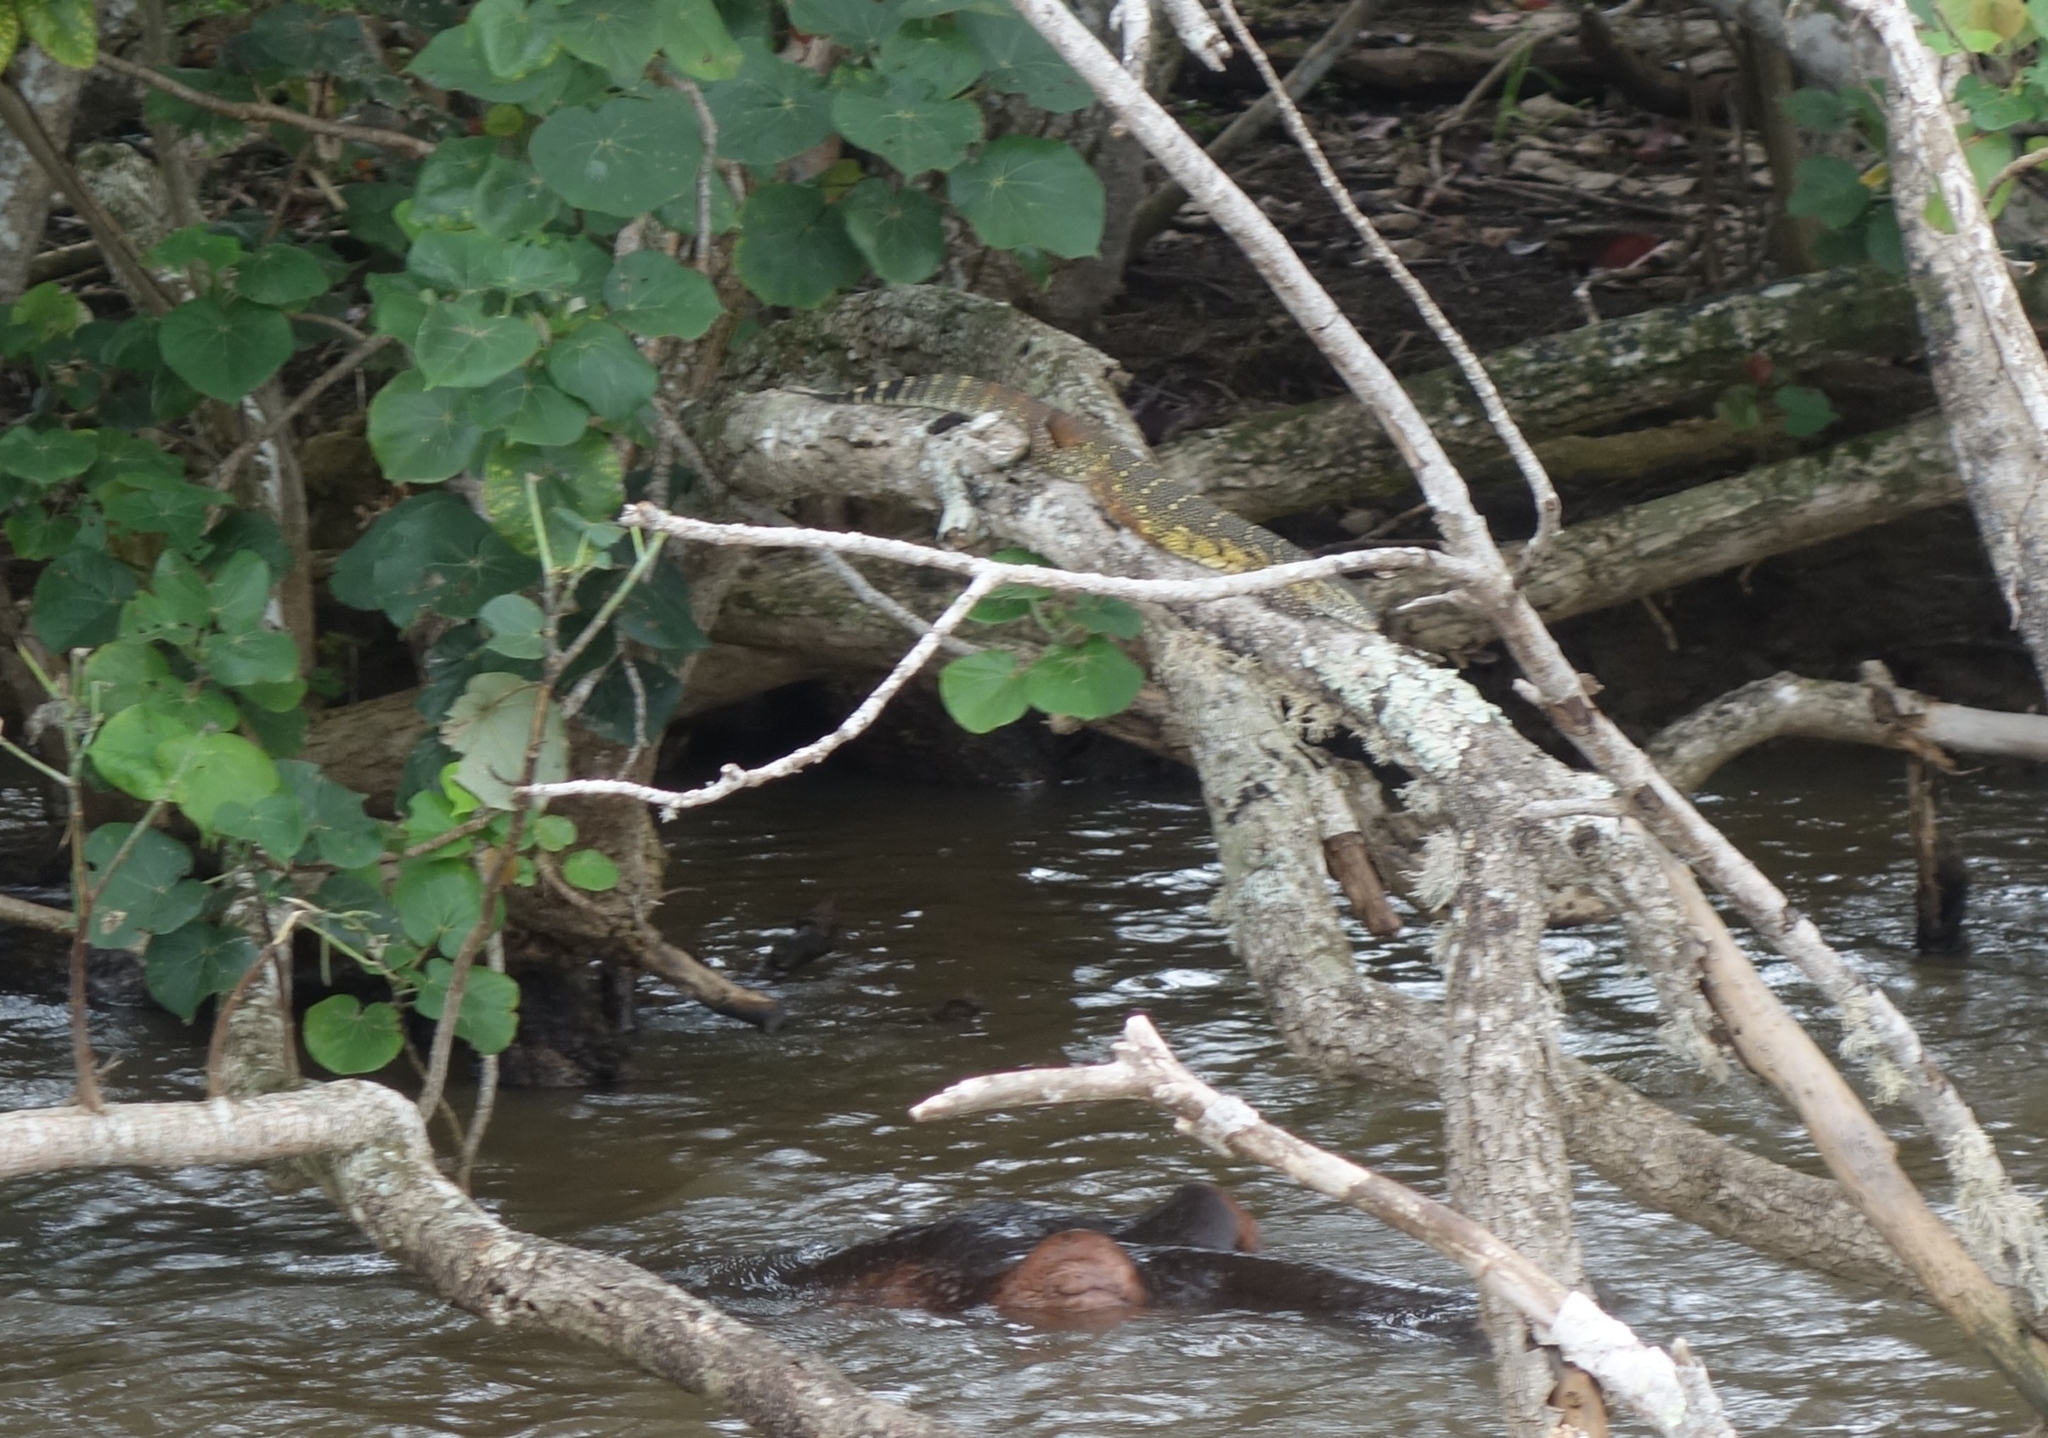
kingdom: Animalia
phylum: Chordata
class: Squamata
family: Varanidae
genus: Varanus
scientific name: Varanus niloticus
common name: Nile monitor
